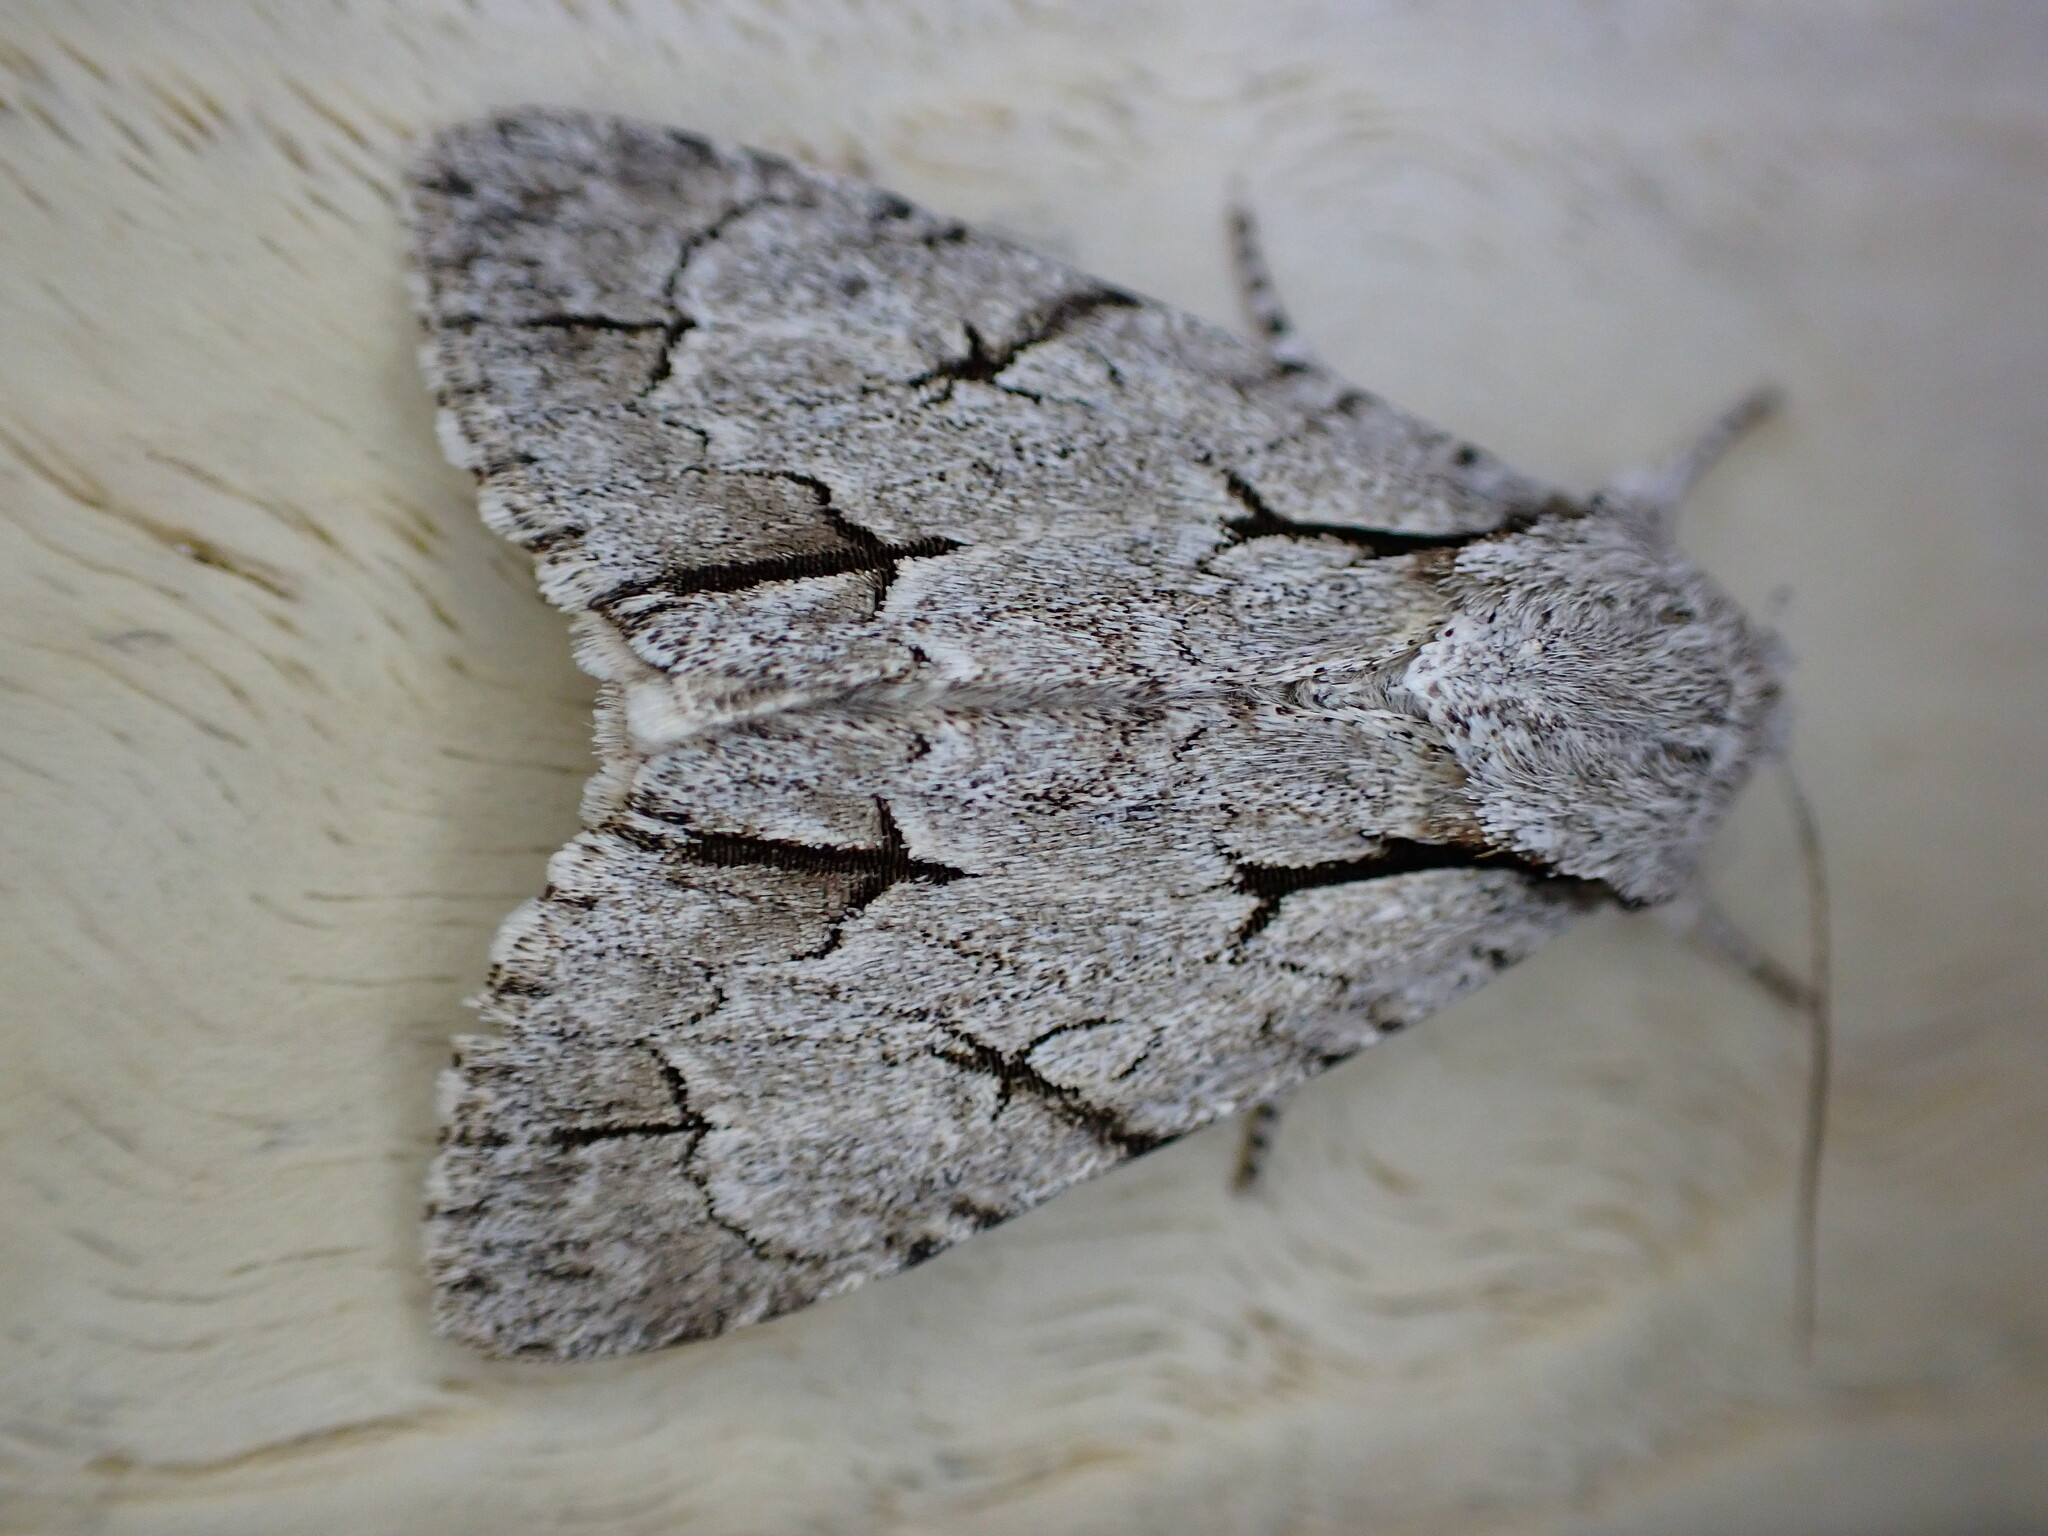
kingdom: Animalia
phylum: Arthropoda
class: Insecta
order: Lepidoptera
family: Noctuidae
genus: Acronicta
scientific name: Acronicta psi
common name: Grey dagger
